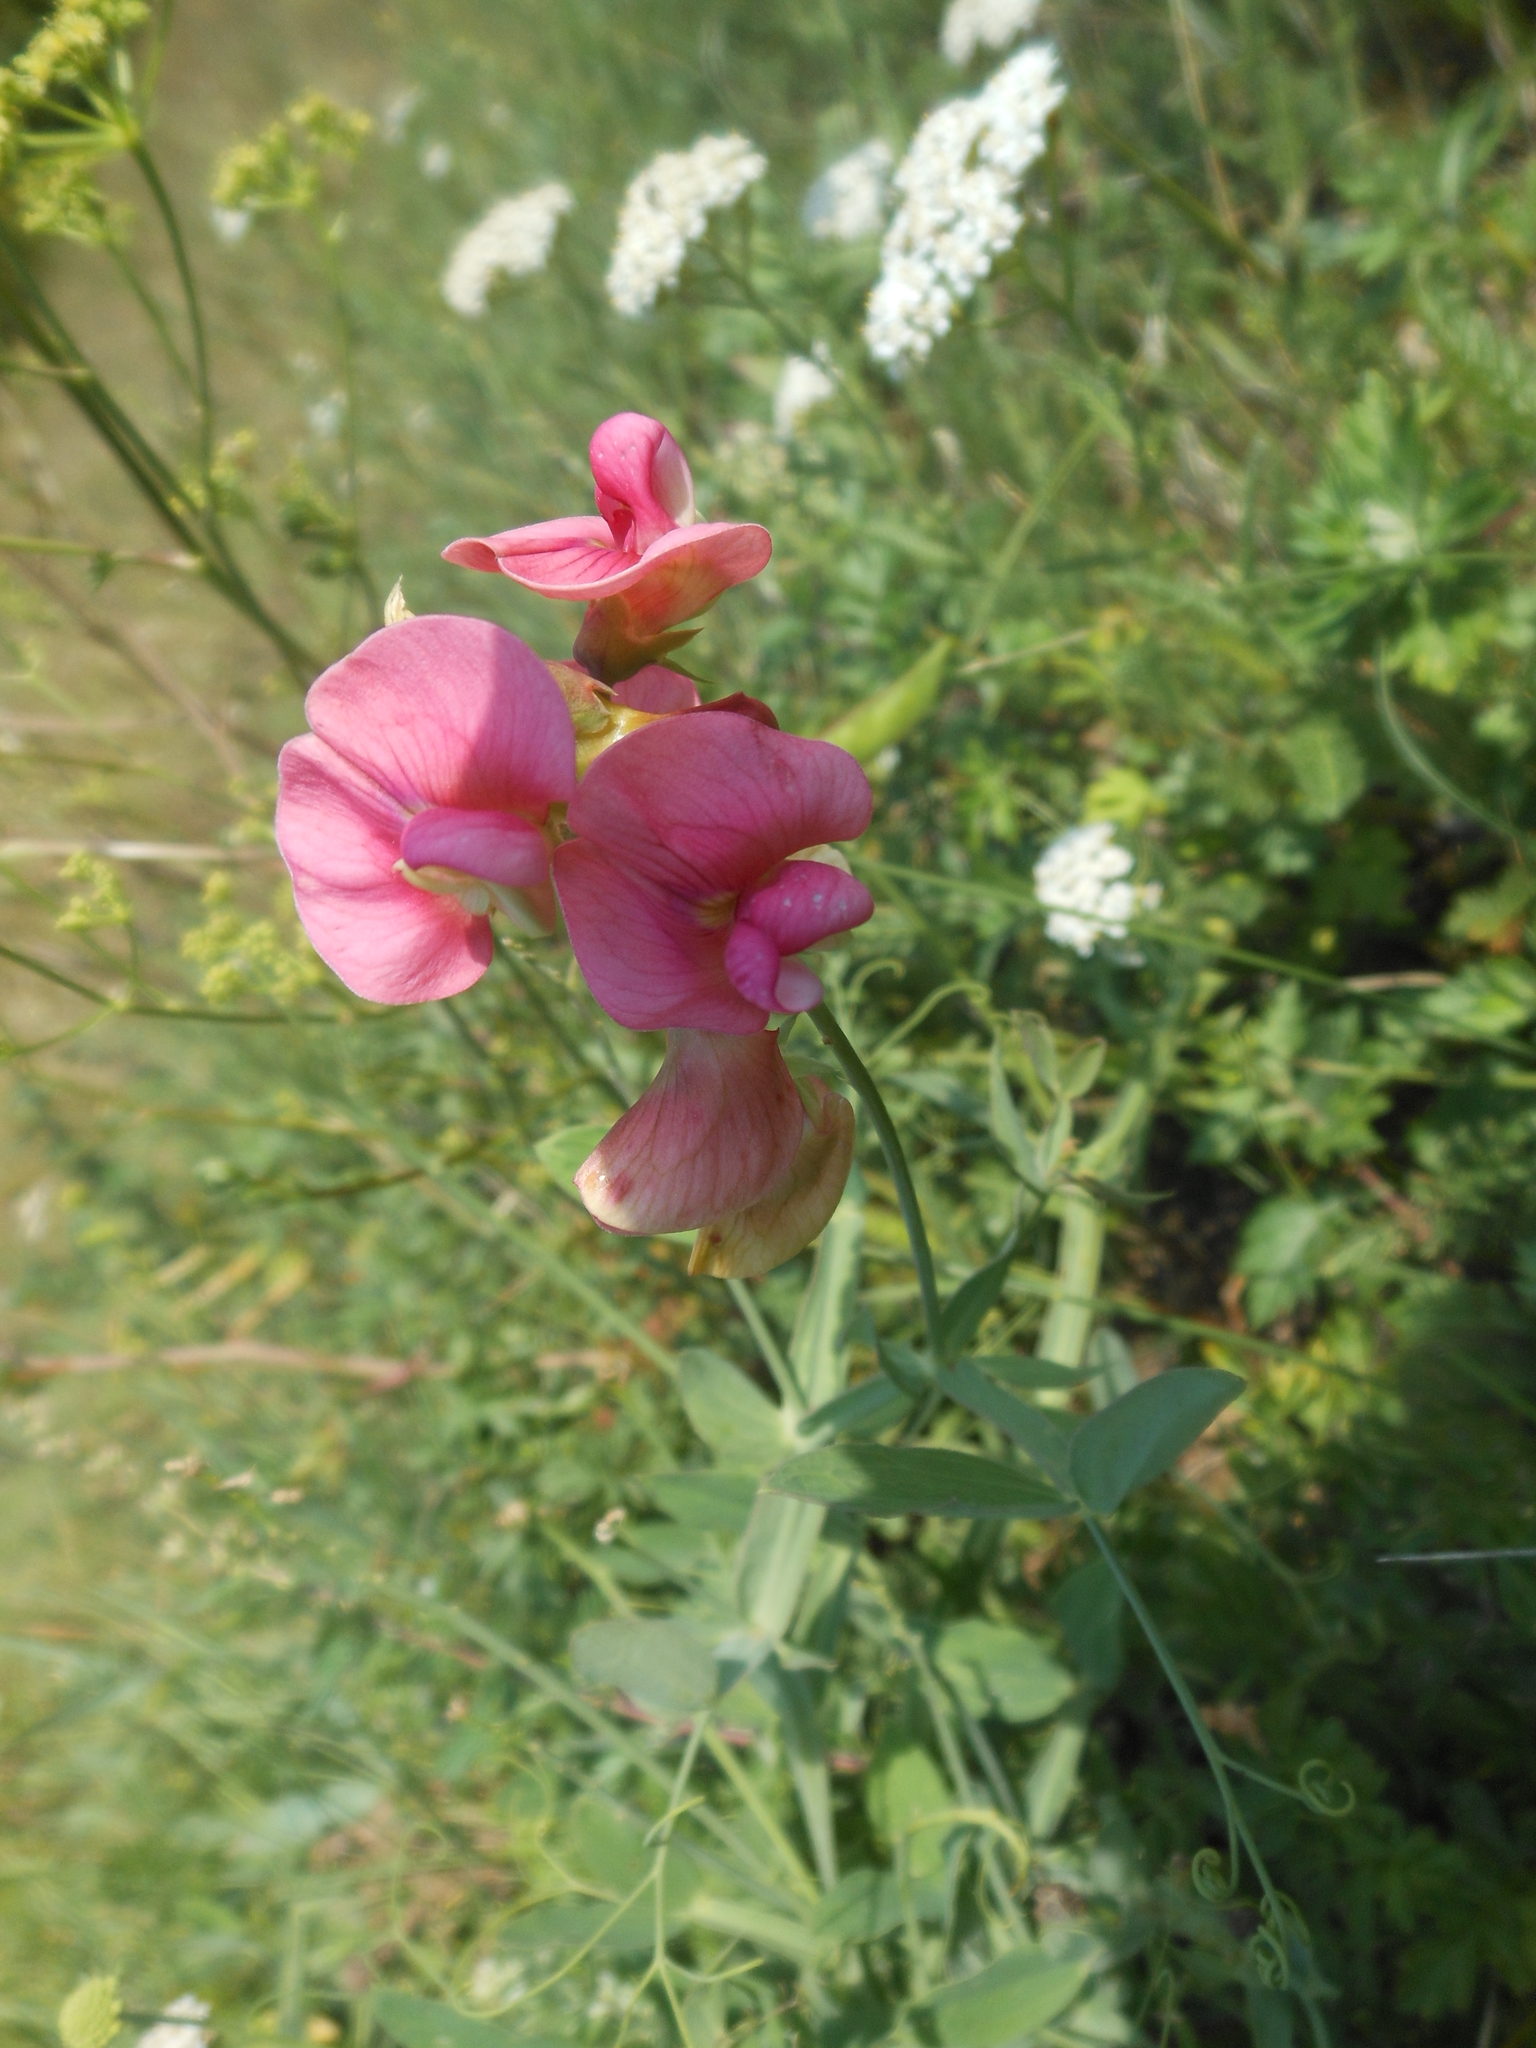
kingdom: Plantae
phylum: Tracheophyta
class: Magnoliopsida
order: Fabales
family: Fabaceae
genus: Lathyrus
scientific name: Lathyrus latifolius
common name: Perennial pea
